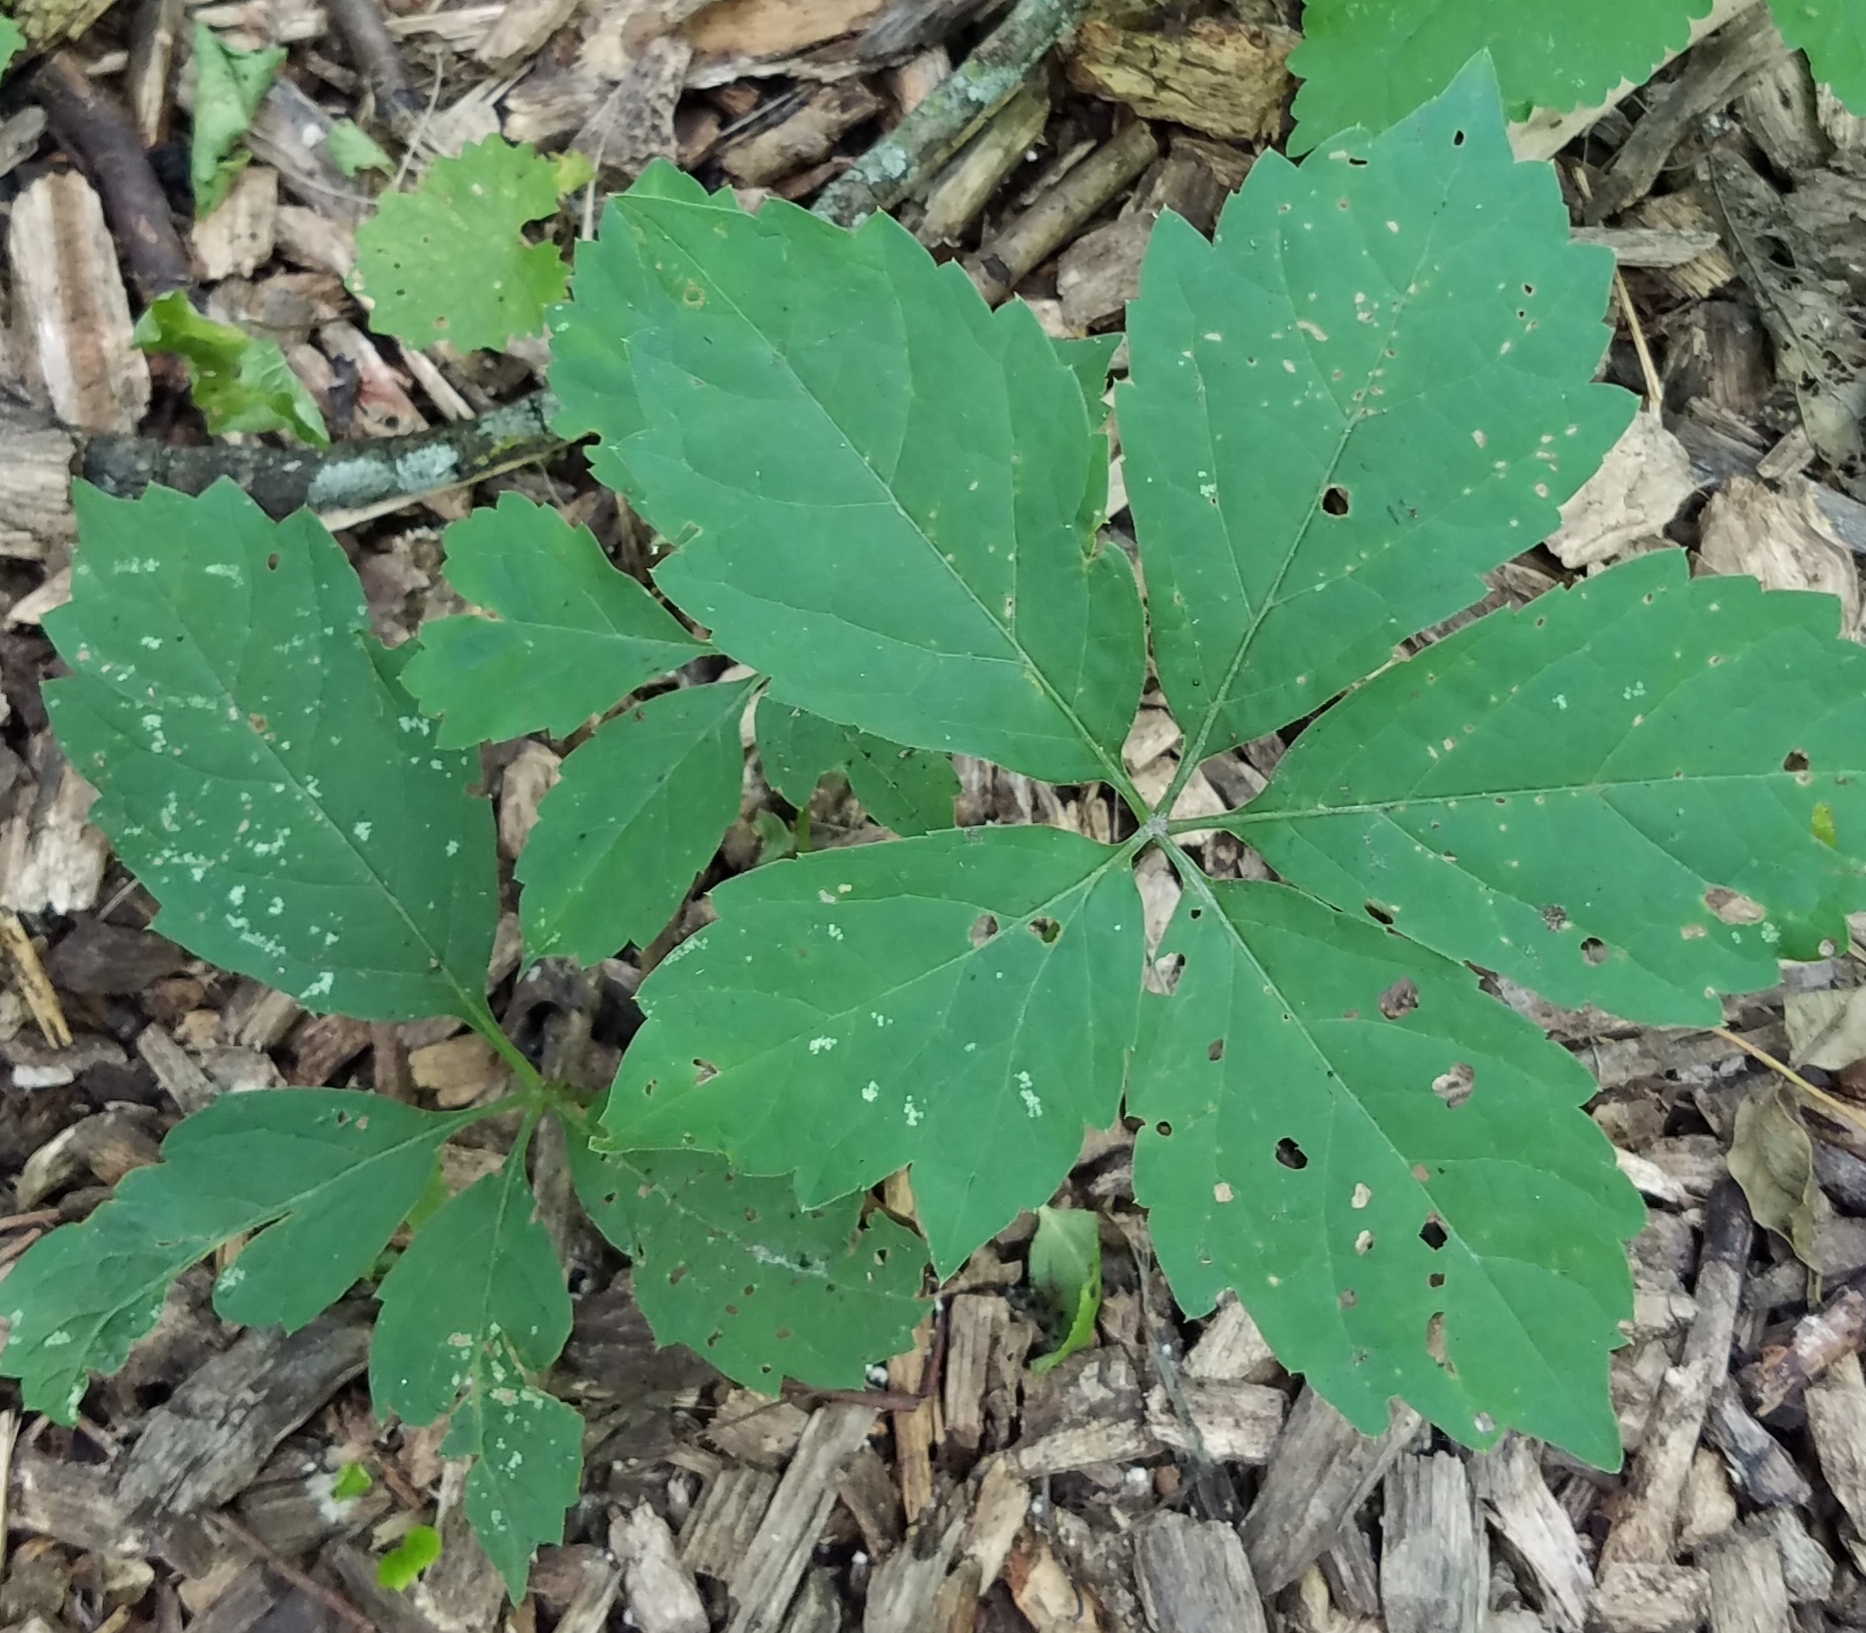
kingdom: Plantae
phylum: Tracheophyta
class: Magnoliopsida
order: Vitales
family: Vitaceae
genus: Parthenocissus
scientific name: Parthenocissus quinquefolia
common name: Virginia-creeper
